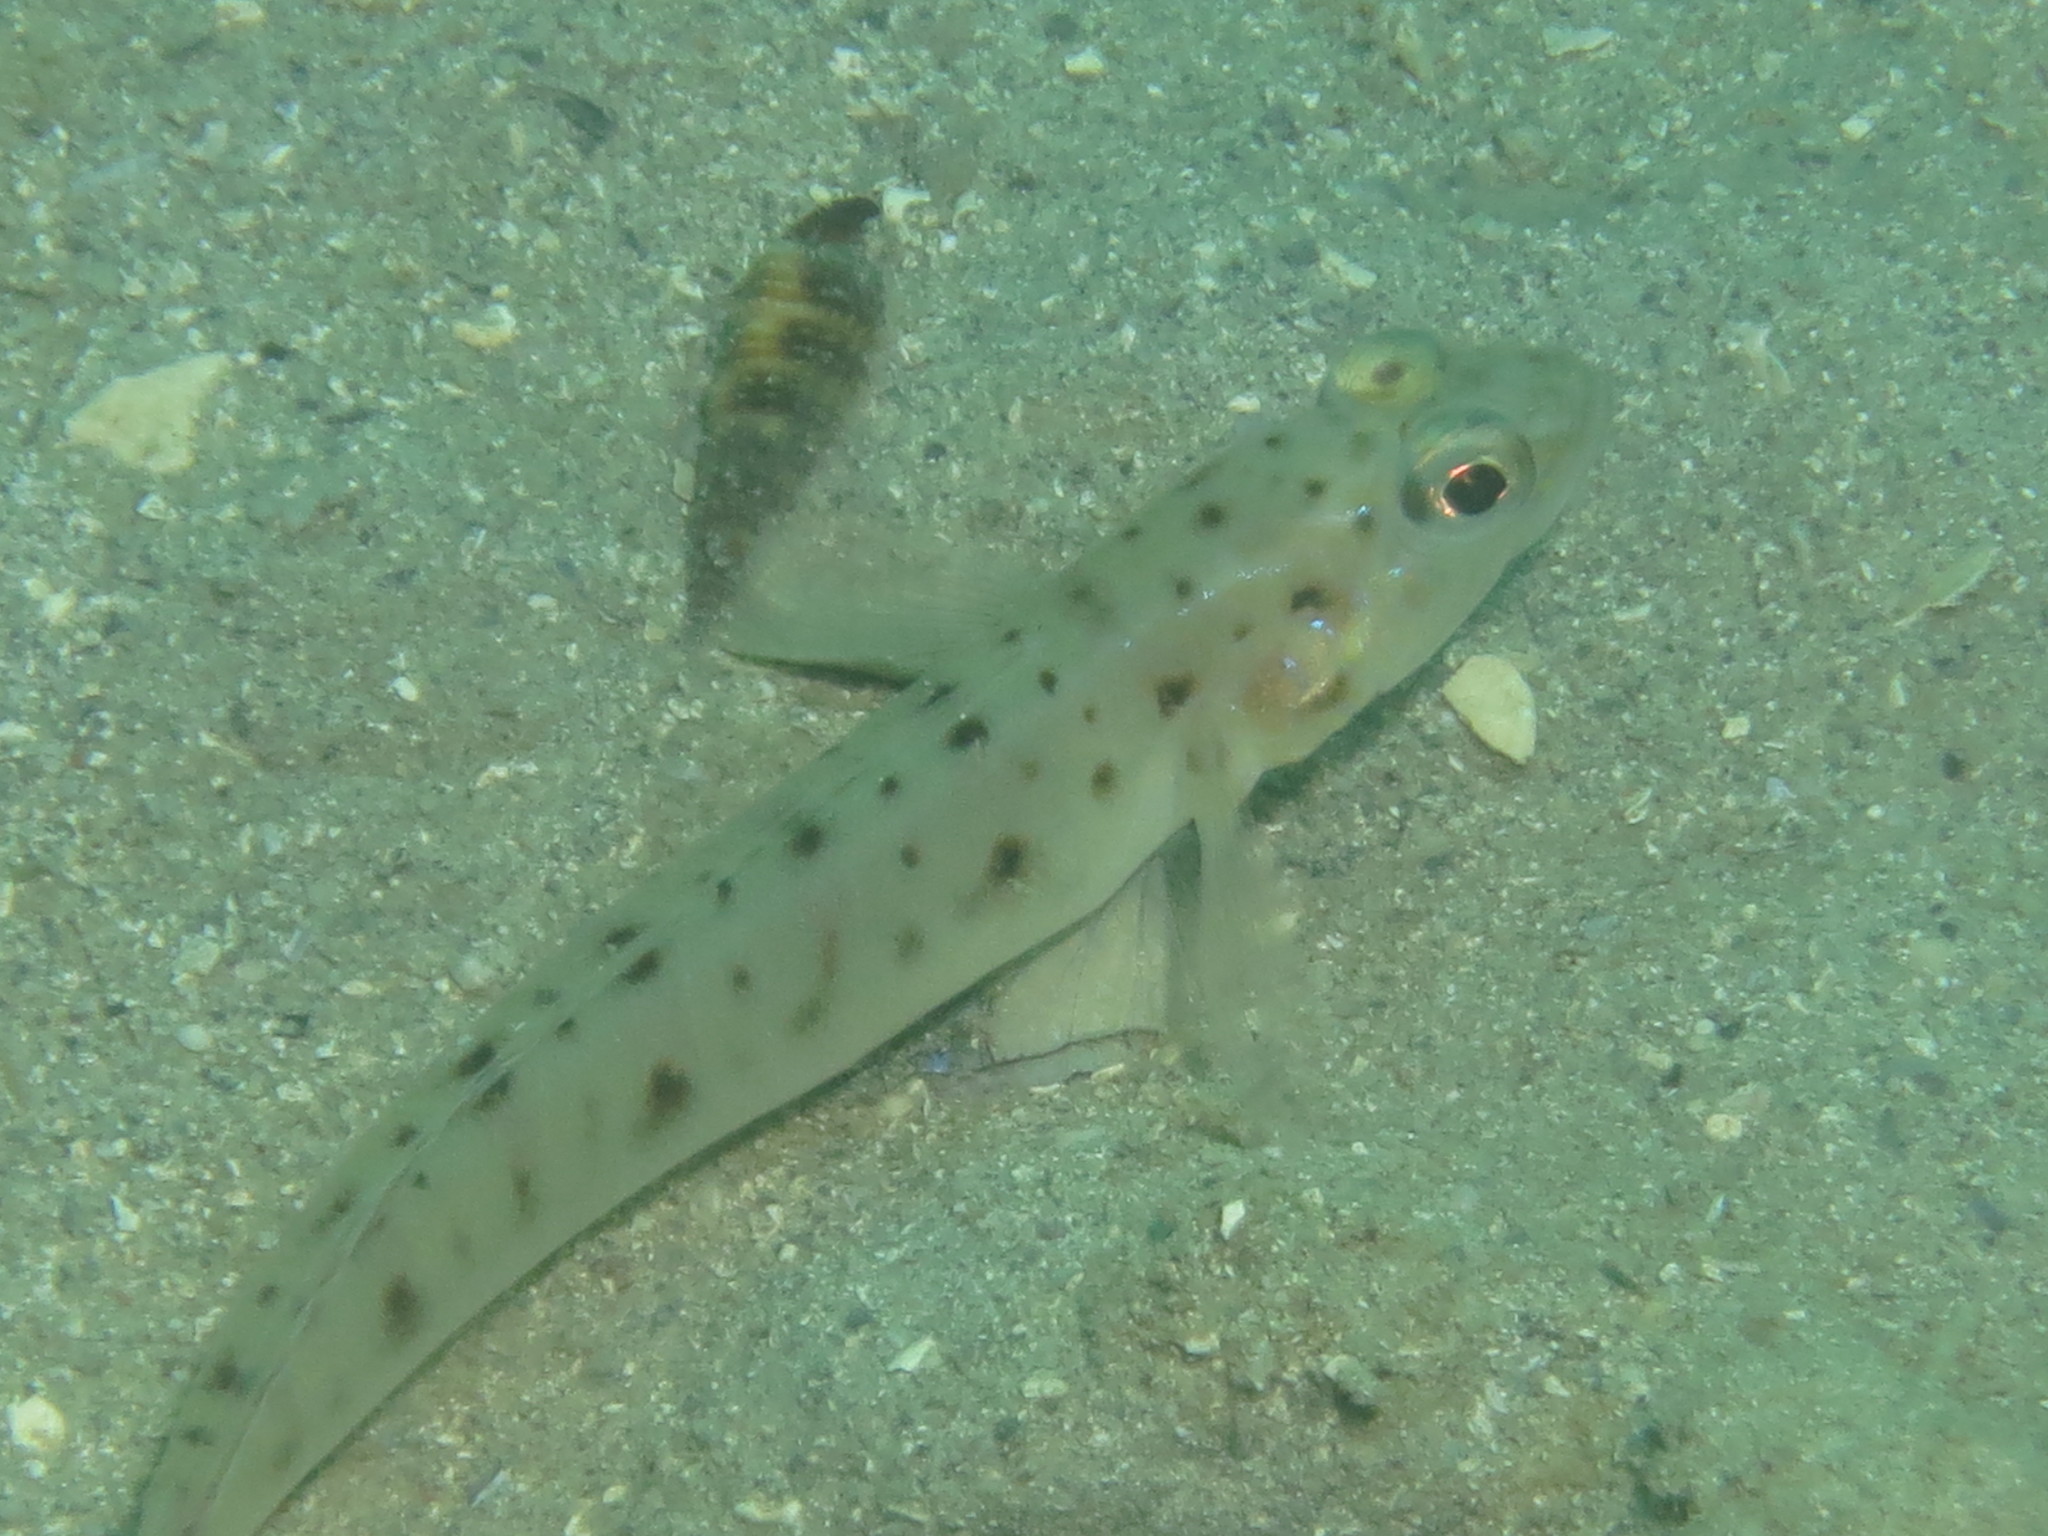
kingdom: Animalia
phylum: Chordata
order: Perciformes
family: Gobiidae
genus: Vanderhorstia
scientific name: Vanderhorstia ambanoro
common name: Ambanoro goby
